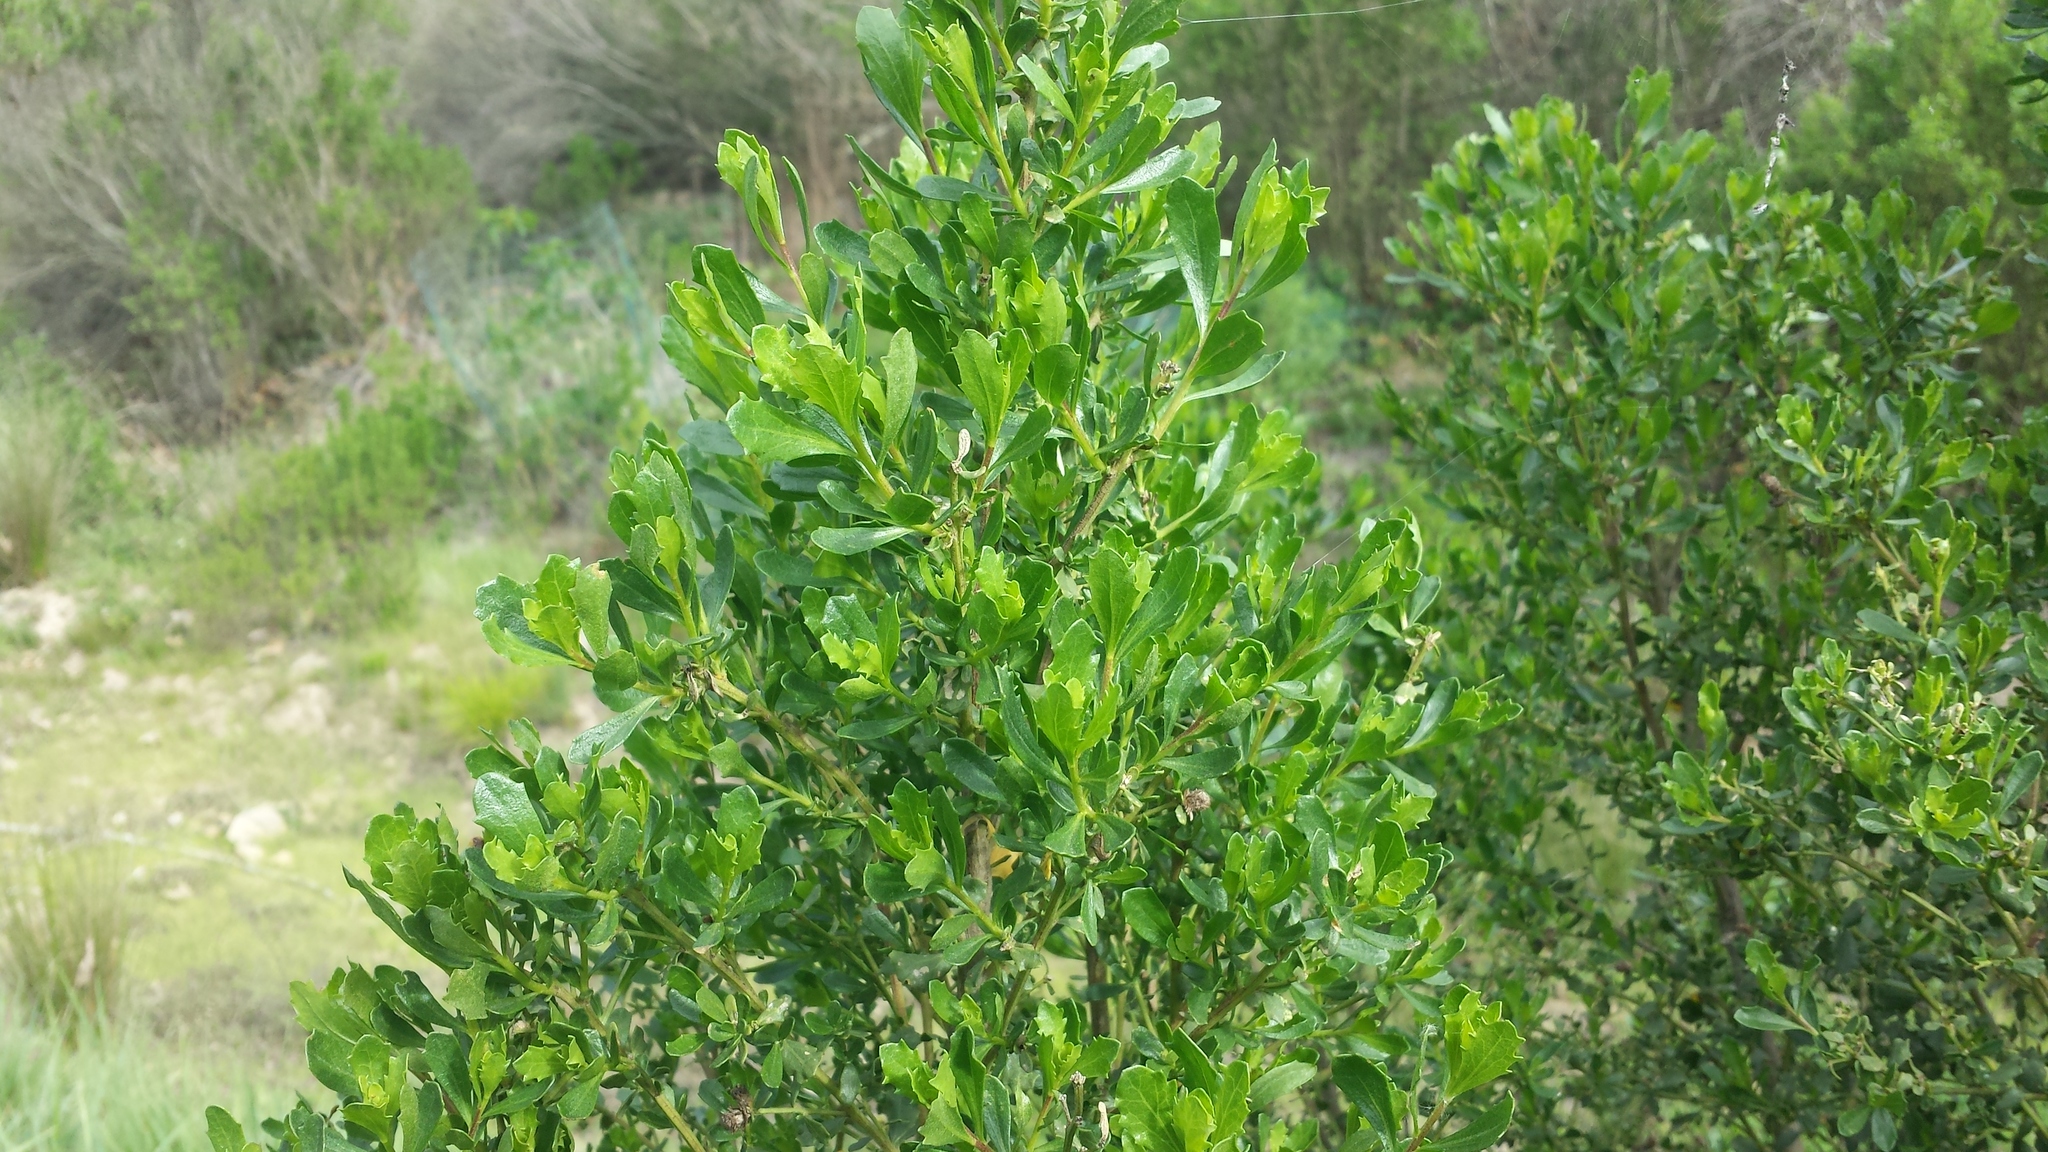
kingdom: Plantae
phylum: Tracheophyta
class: Magnoliopsida
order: Asterales
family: Asteraceae
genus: Baccharis
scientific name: Baccharis pilularis
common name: Coyotebrush
